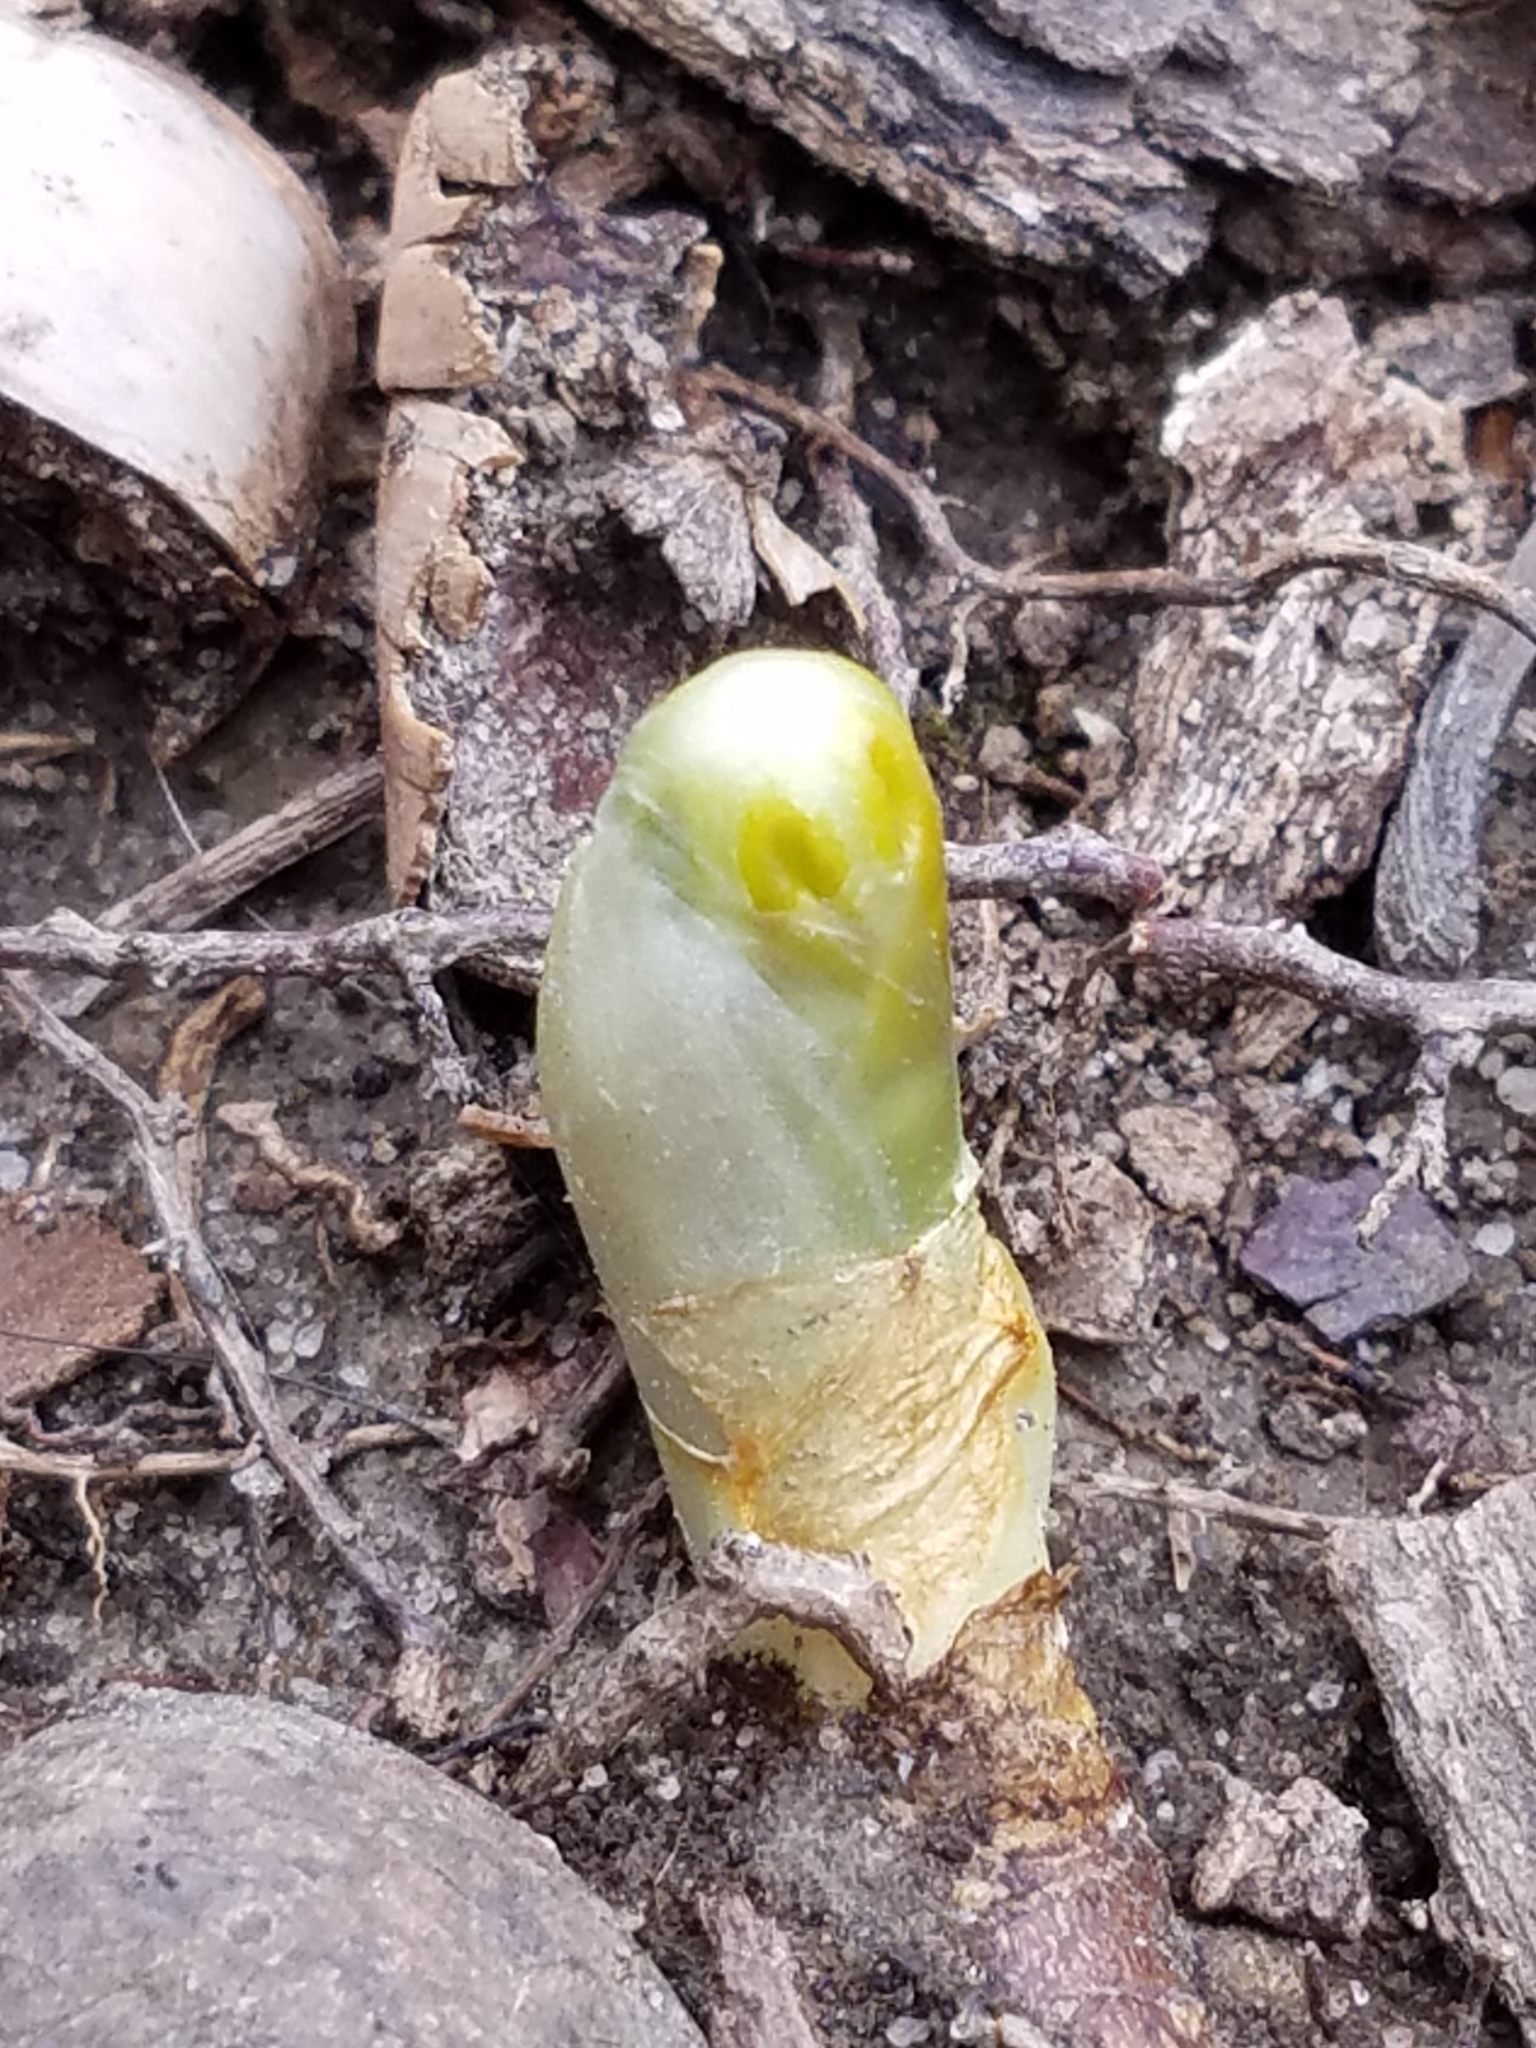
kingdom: Plantae
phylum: Tracheophyta
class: Magnoliopsida
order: Ranunculales
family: Berberidaceae
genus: Podophyllum
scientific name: Podophyllum peltatum
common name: Wild mandrake
